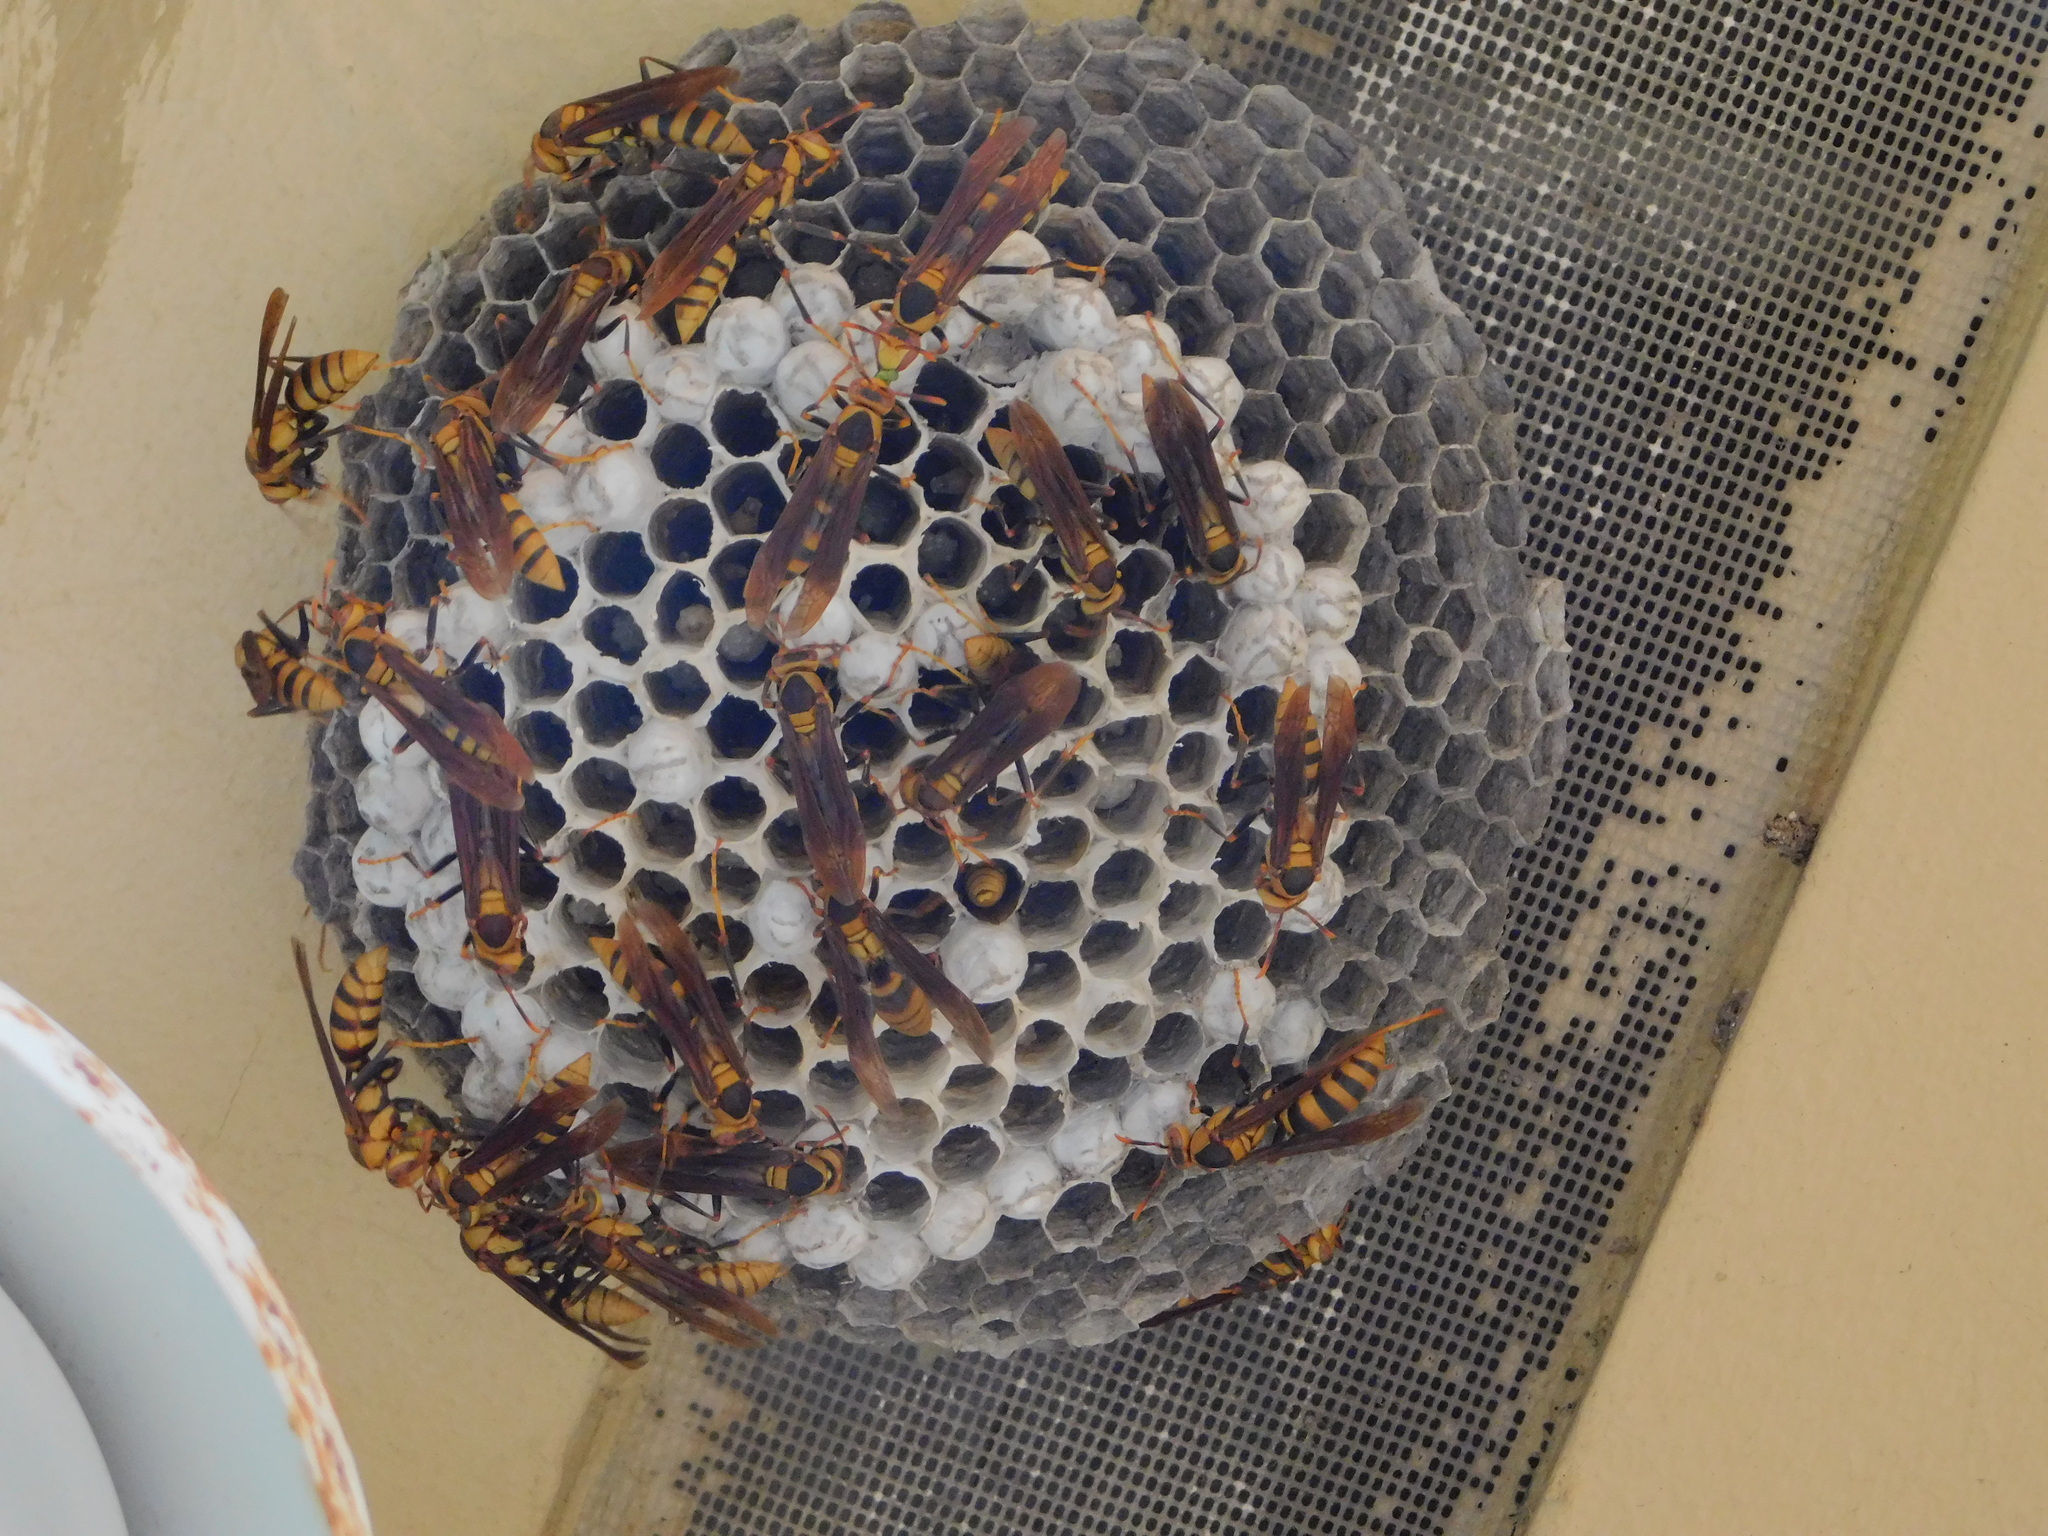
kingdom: Animalia
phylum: Arthropoda
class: Insecta
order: Hymenoptera
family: Eumenidae
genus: Polistes
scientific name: Polistes major
